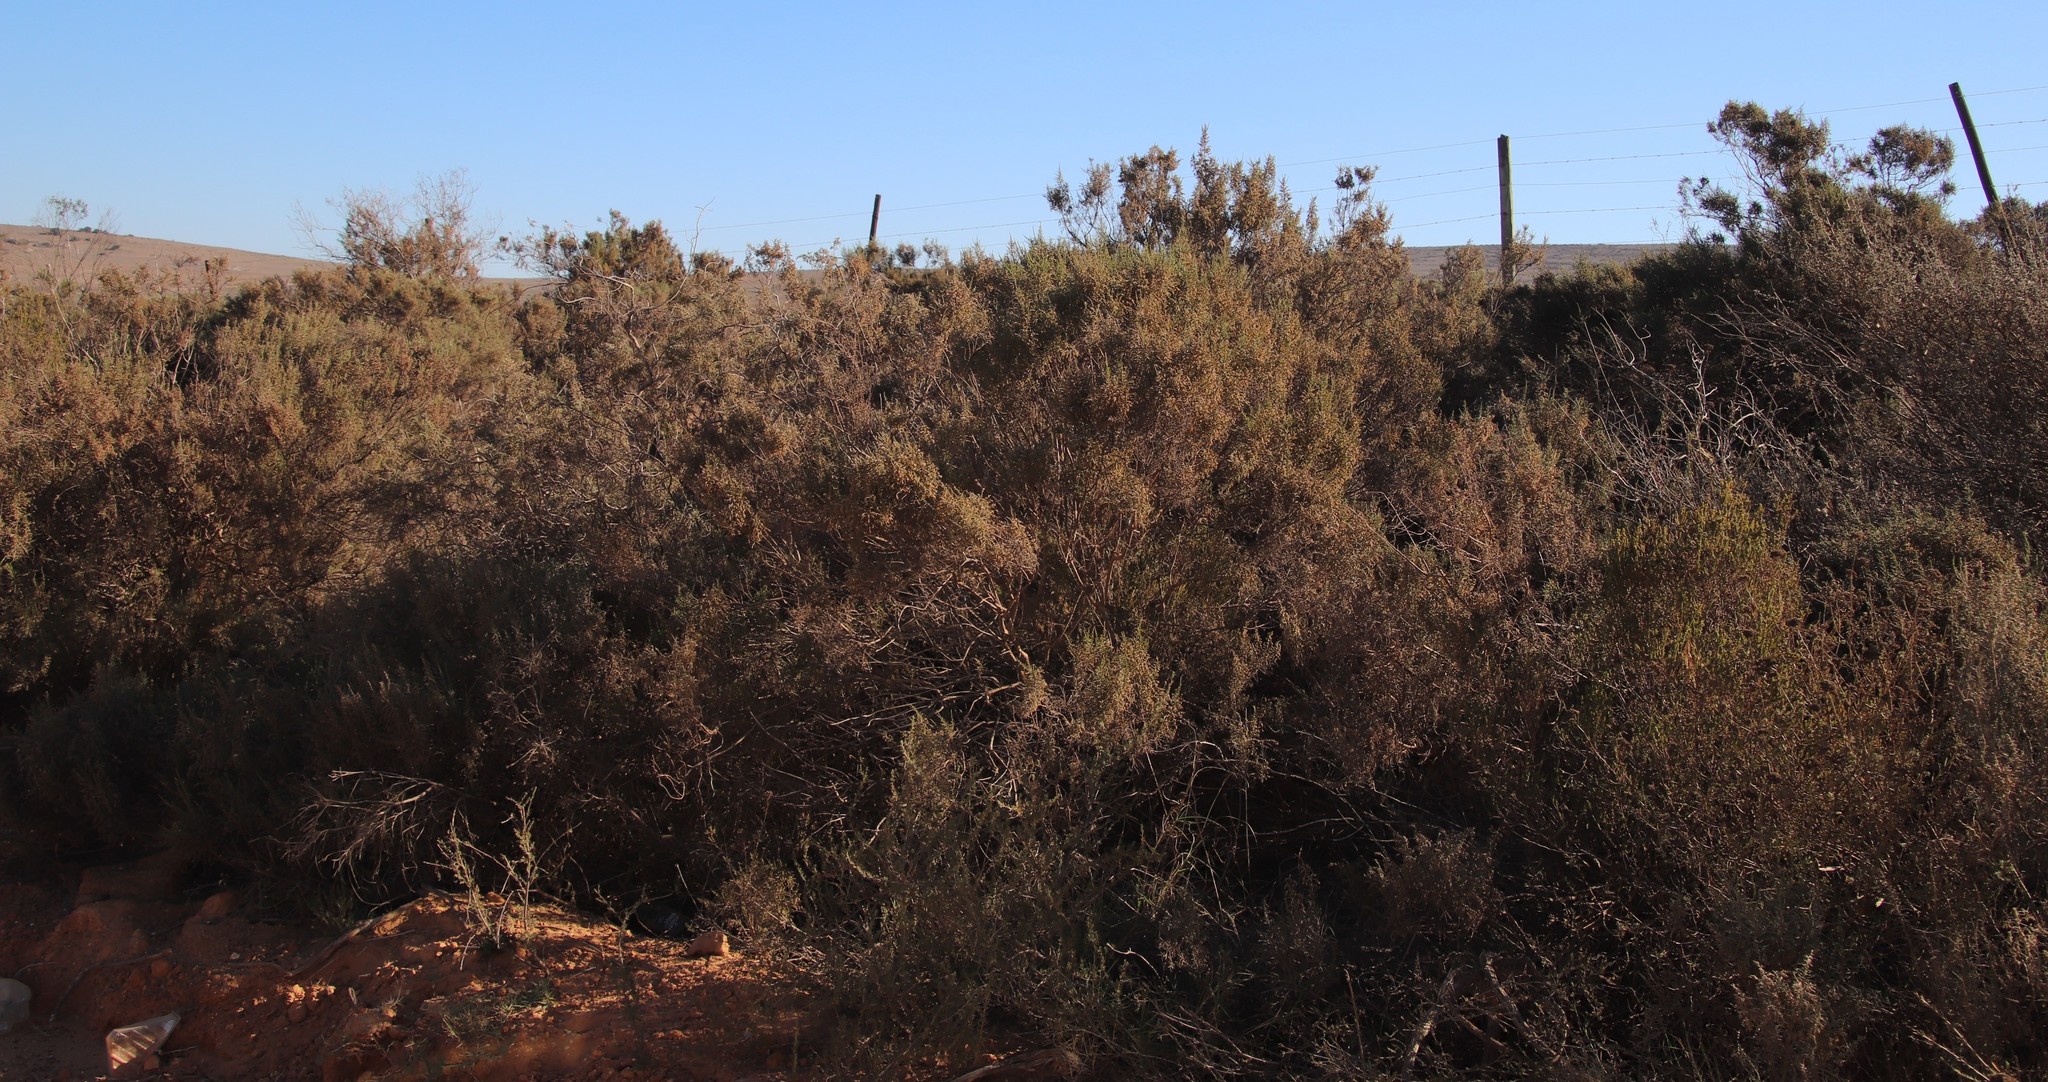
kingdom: Plantae
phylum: Tracheophyta
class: Magnoliopsida
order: Asterales
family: Asteraceae
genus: Dicerothamnus
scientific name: Dicerothamnus rhinocerotis
